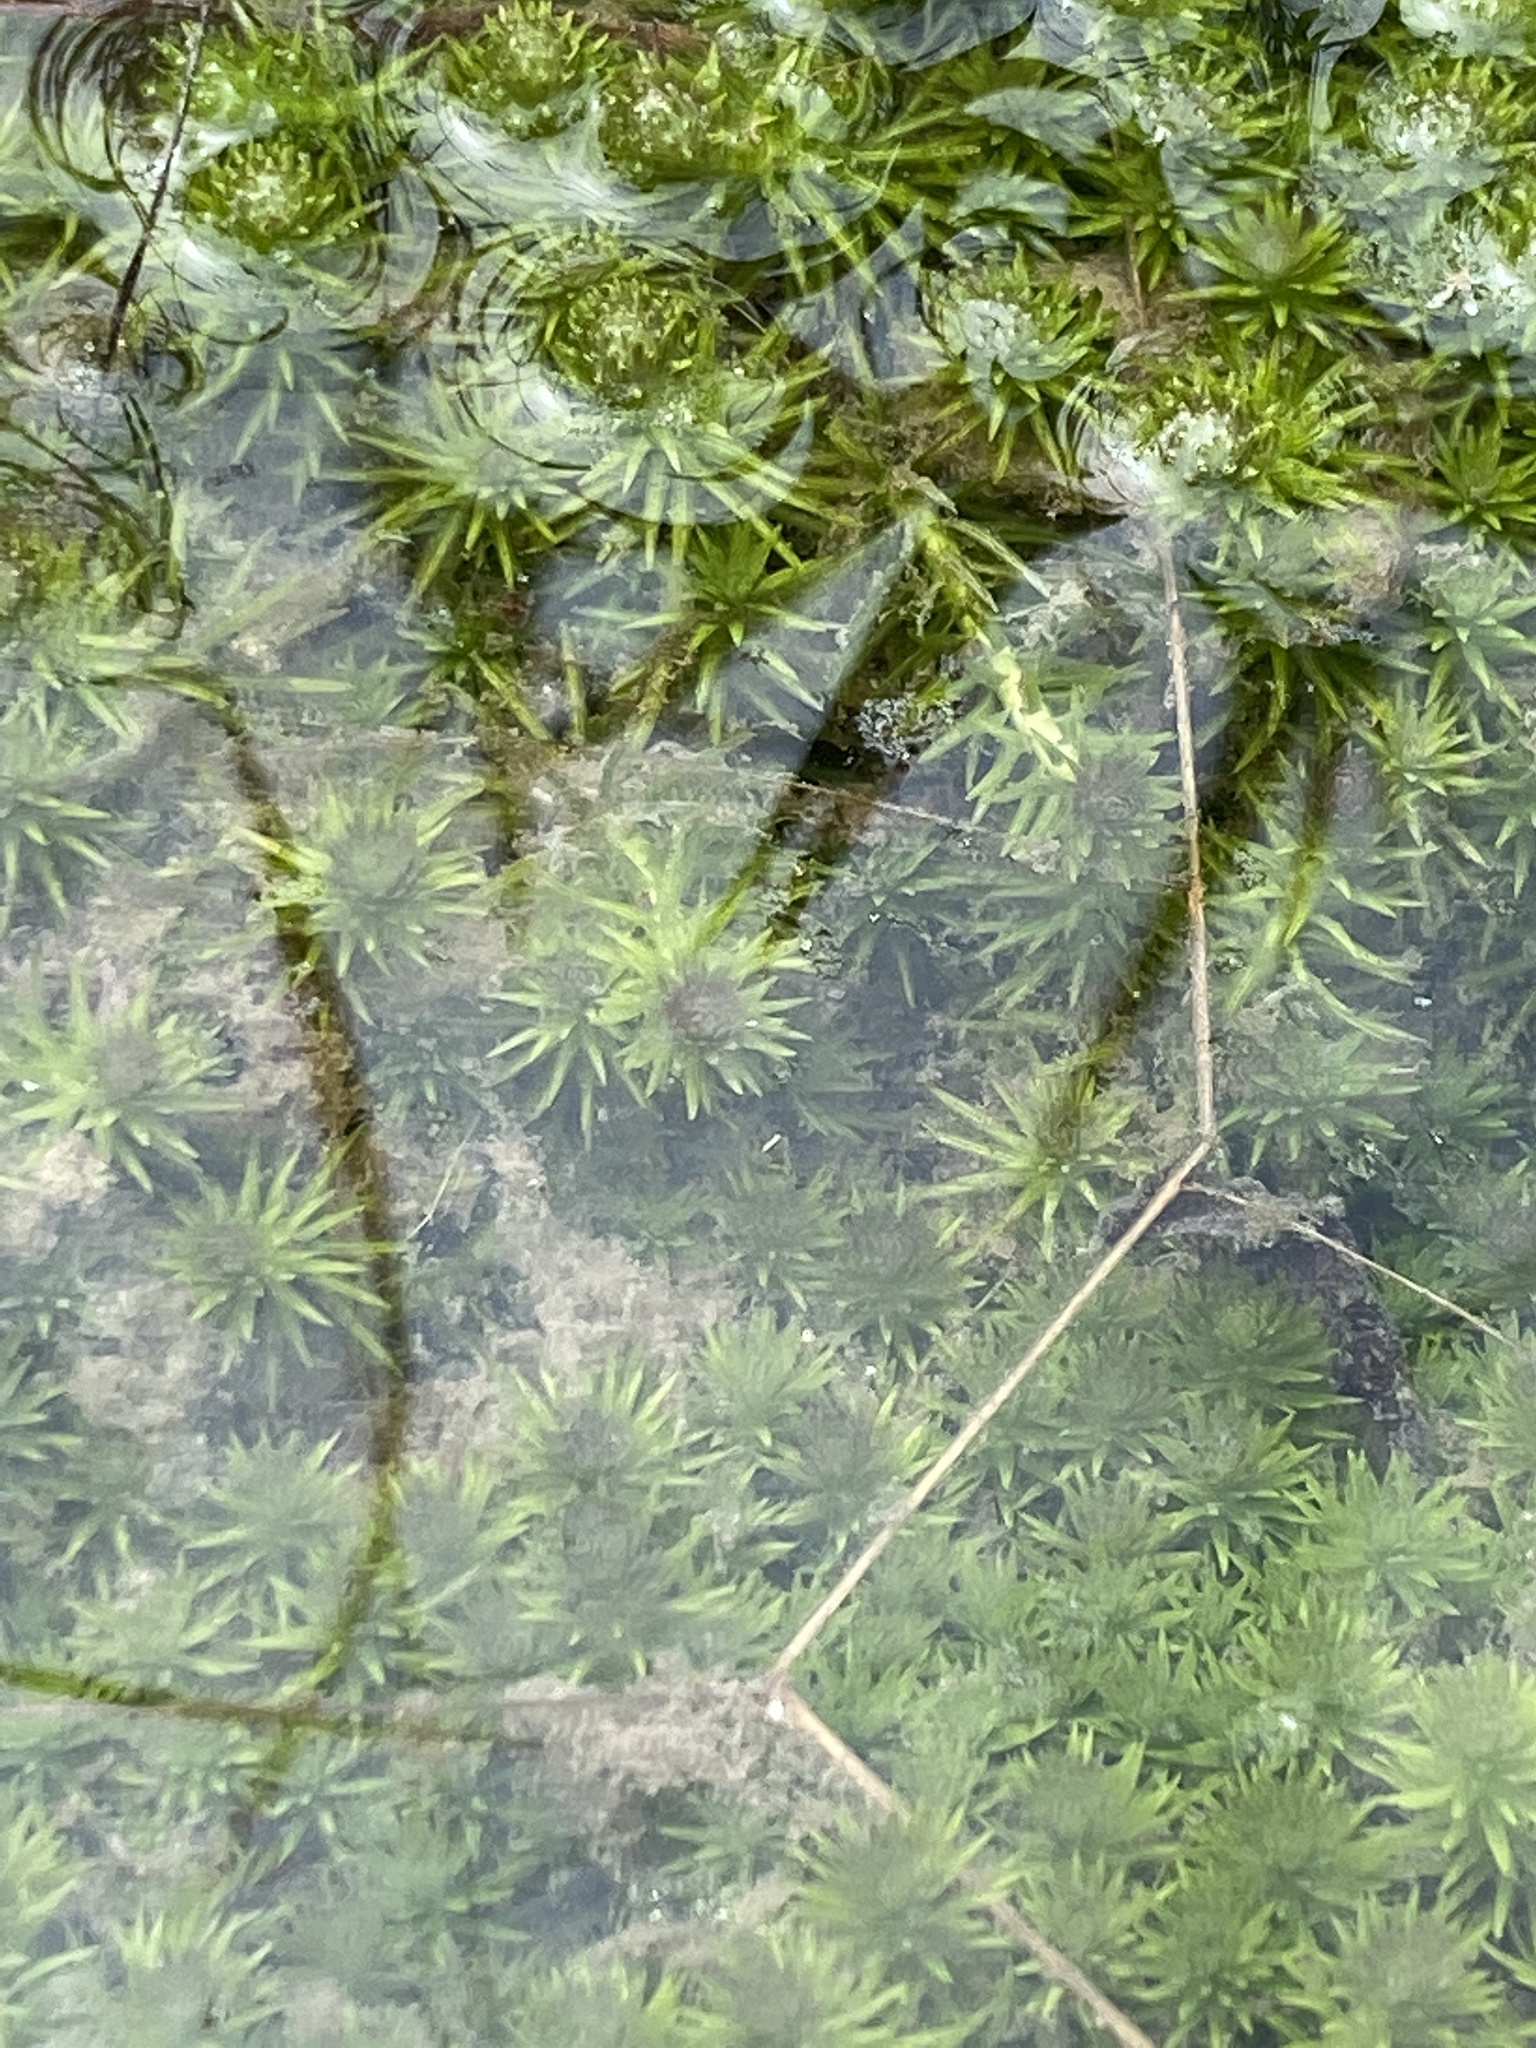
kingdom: Plantae
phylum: Tracheophyta
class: Liliopsida
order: Poales
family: Mayacaceae
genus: Mayaca
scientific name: Mayaca fluviatilis
